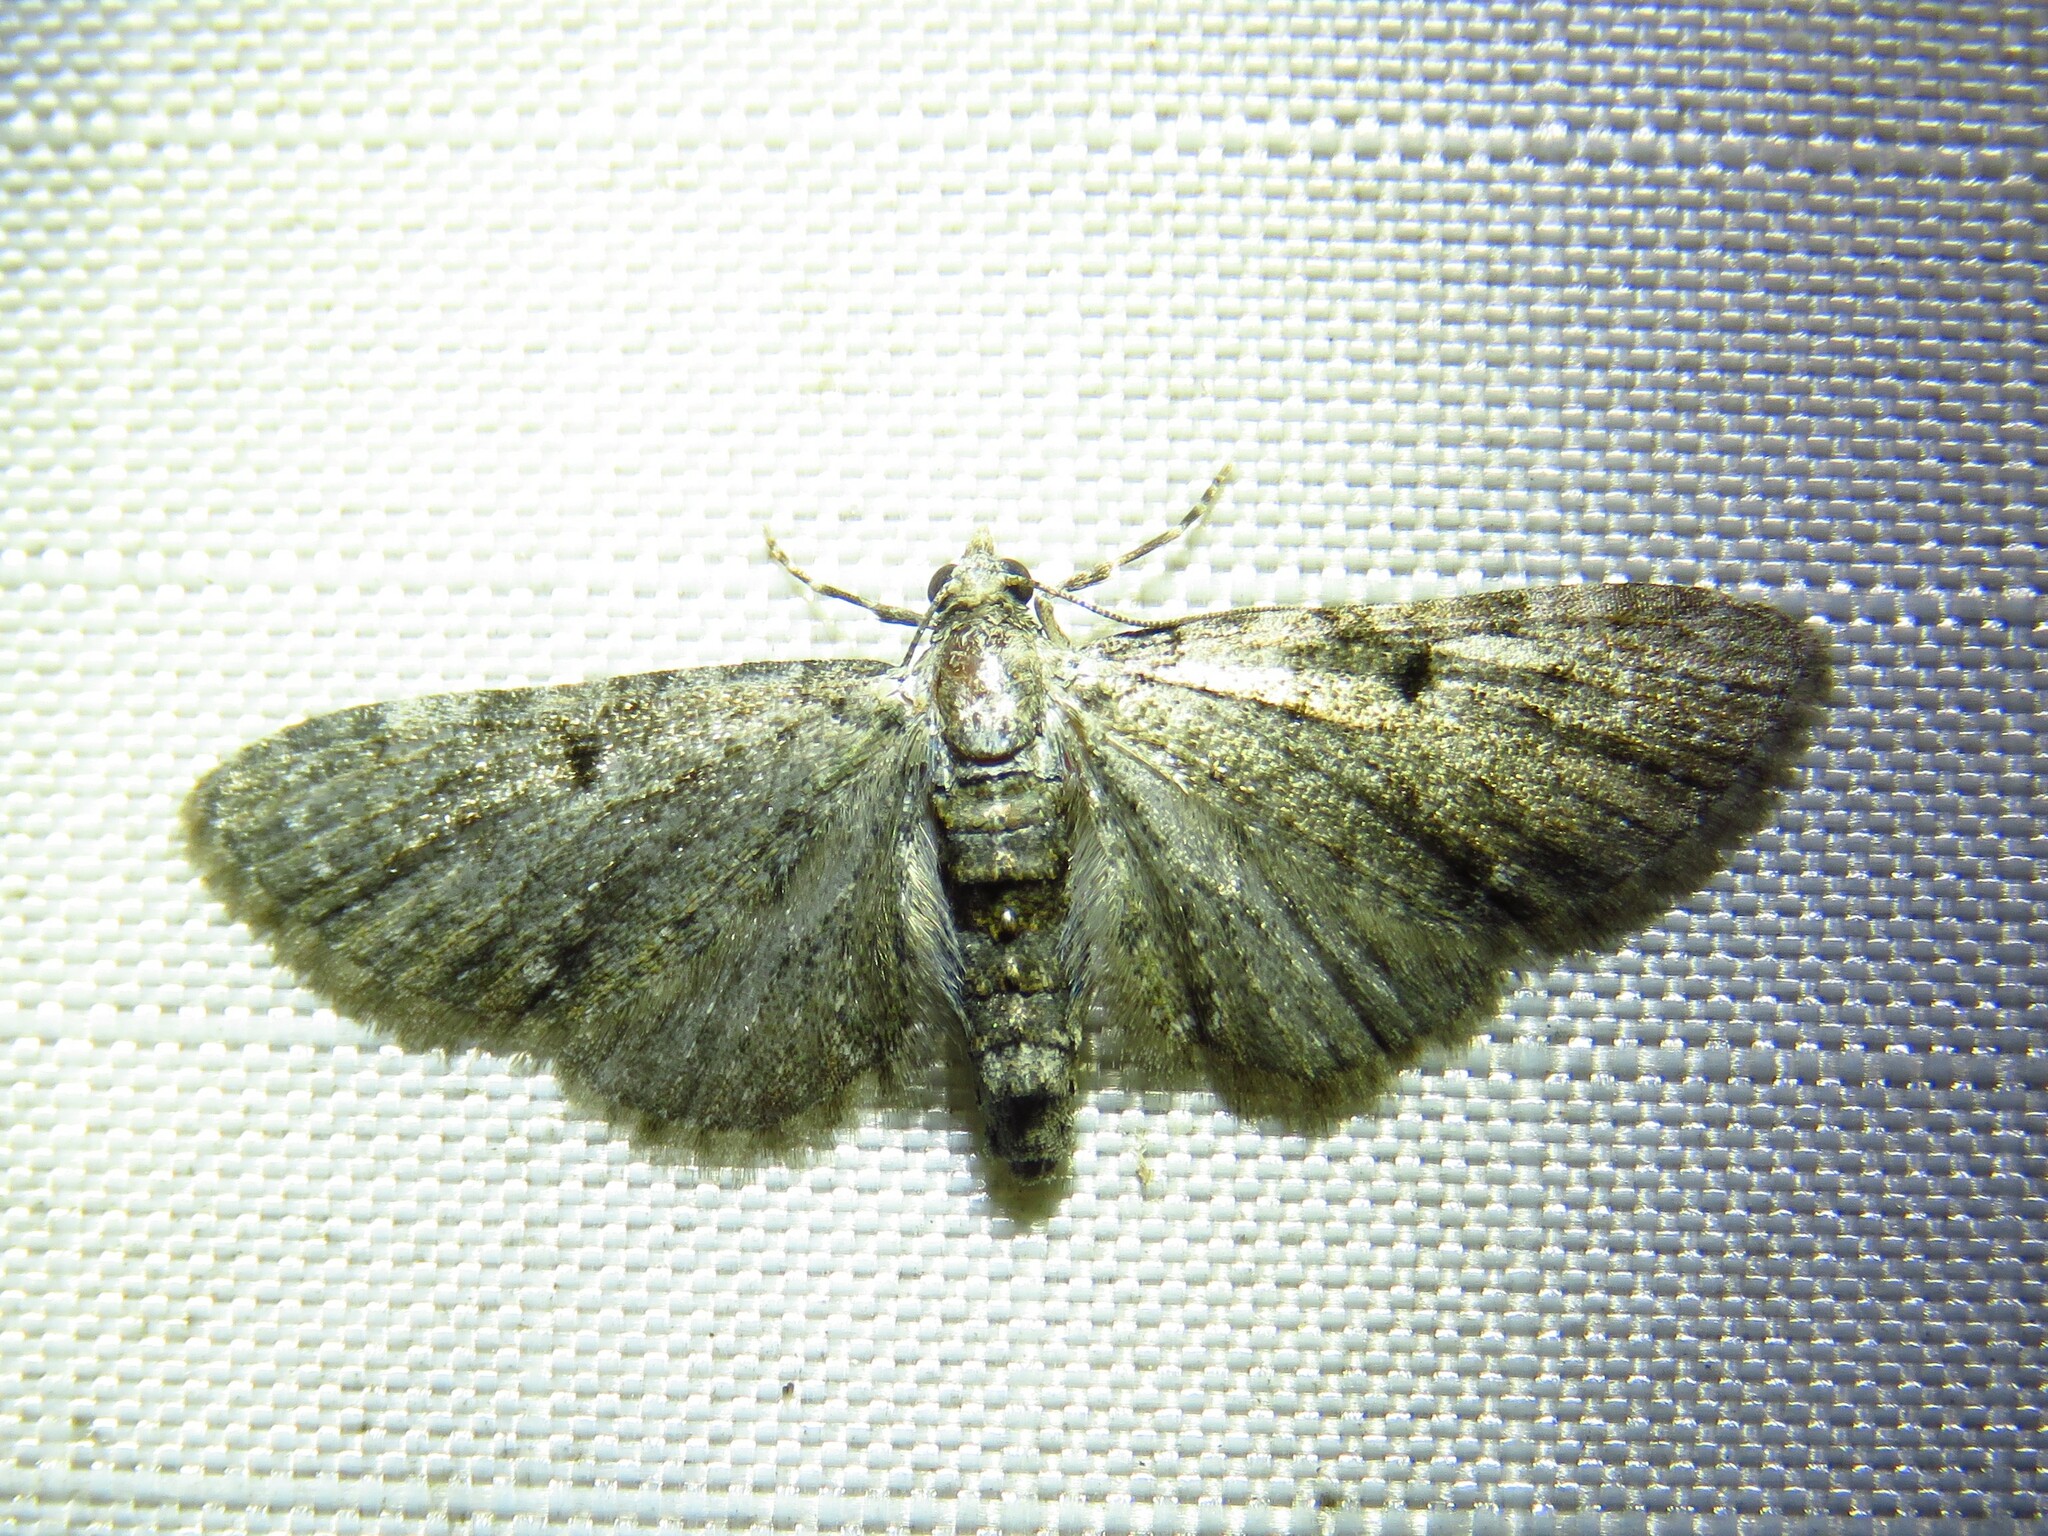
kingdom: Animalia
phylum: Arthropoda
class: Insecta
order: Lepidoptera
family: Geometridae
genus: Eupithecia
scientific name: Eupithecia miserulata
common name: Common eupithecia
